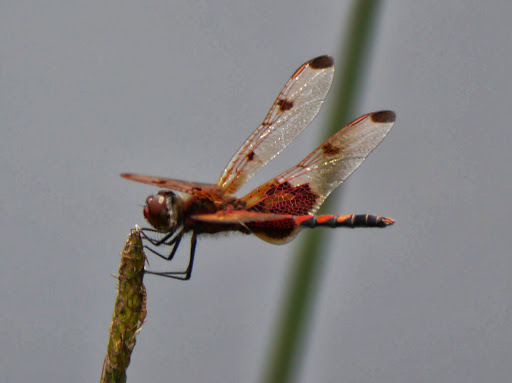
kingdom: Animalia
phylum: Arthropoda
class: Insecta
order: Odonata
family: Libellulidae
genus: Celithemis
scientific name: Celithemis elisa
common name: Calico pennant
